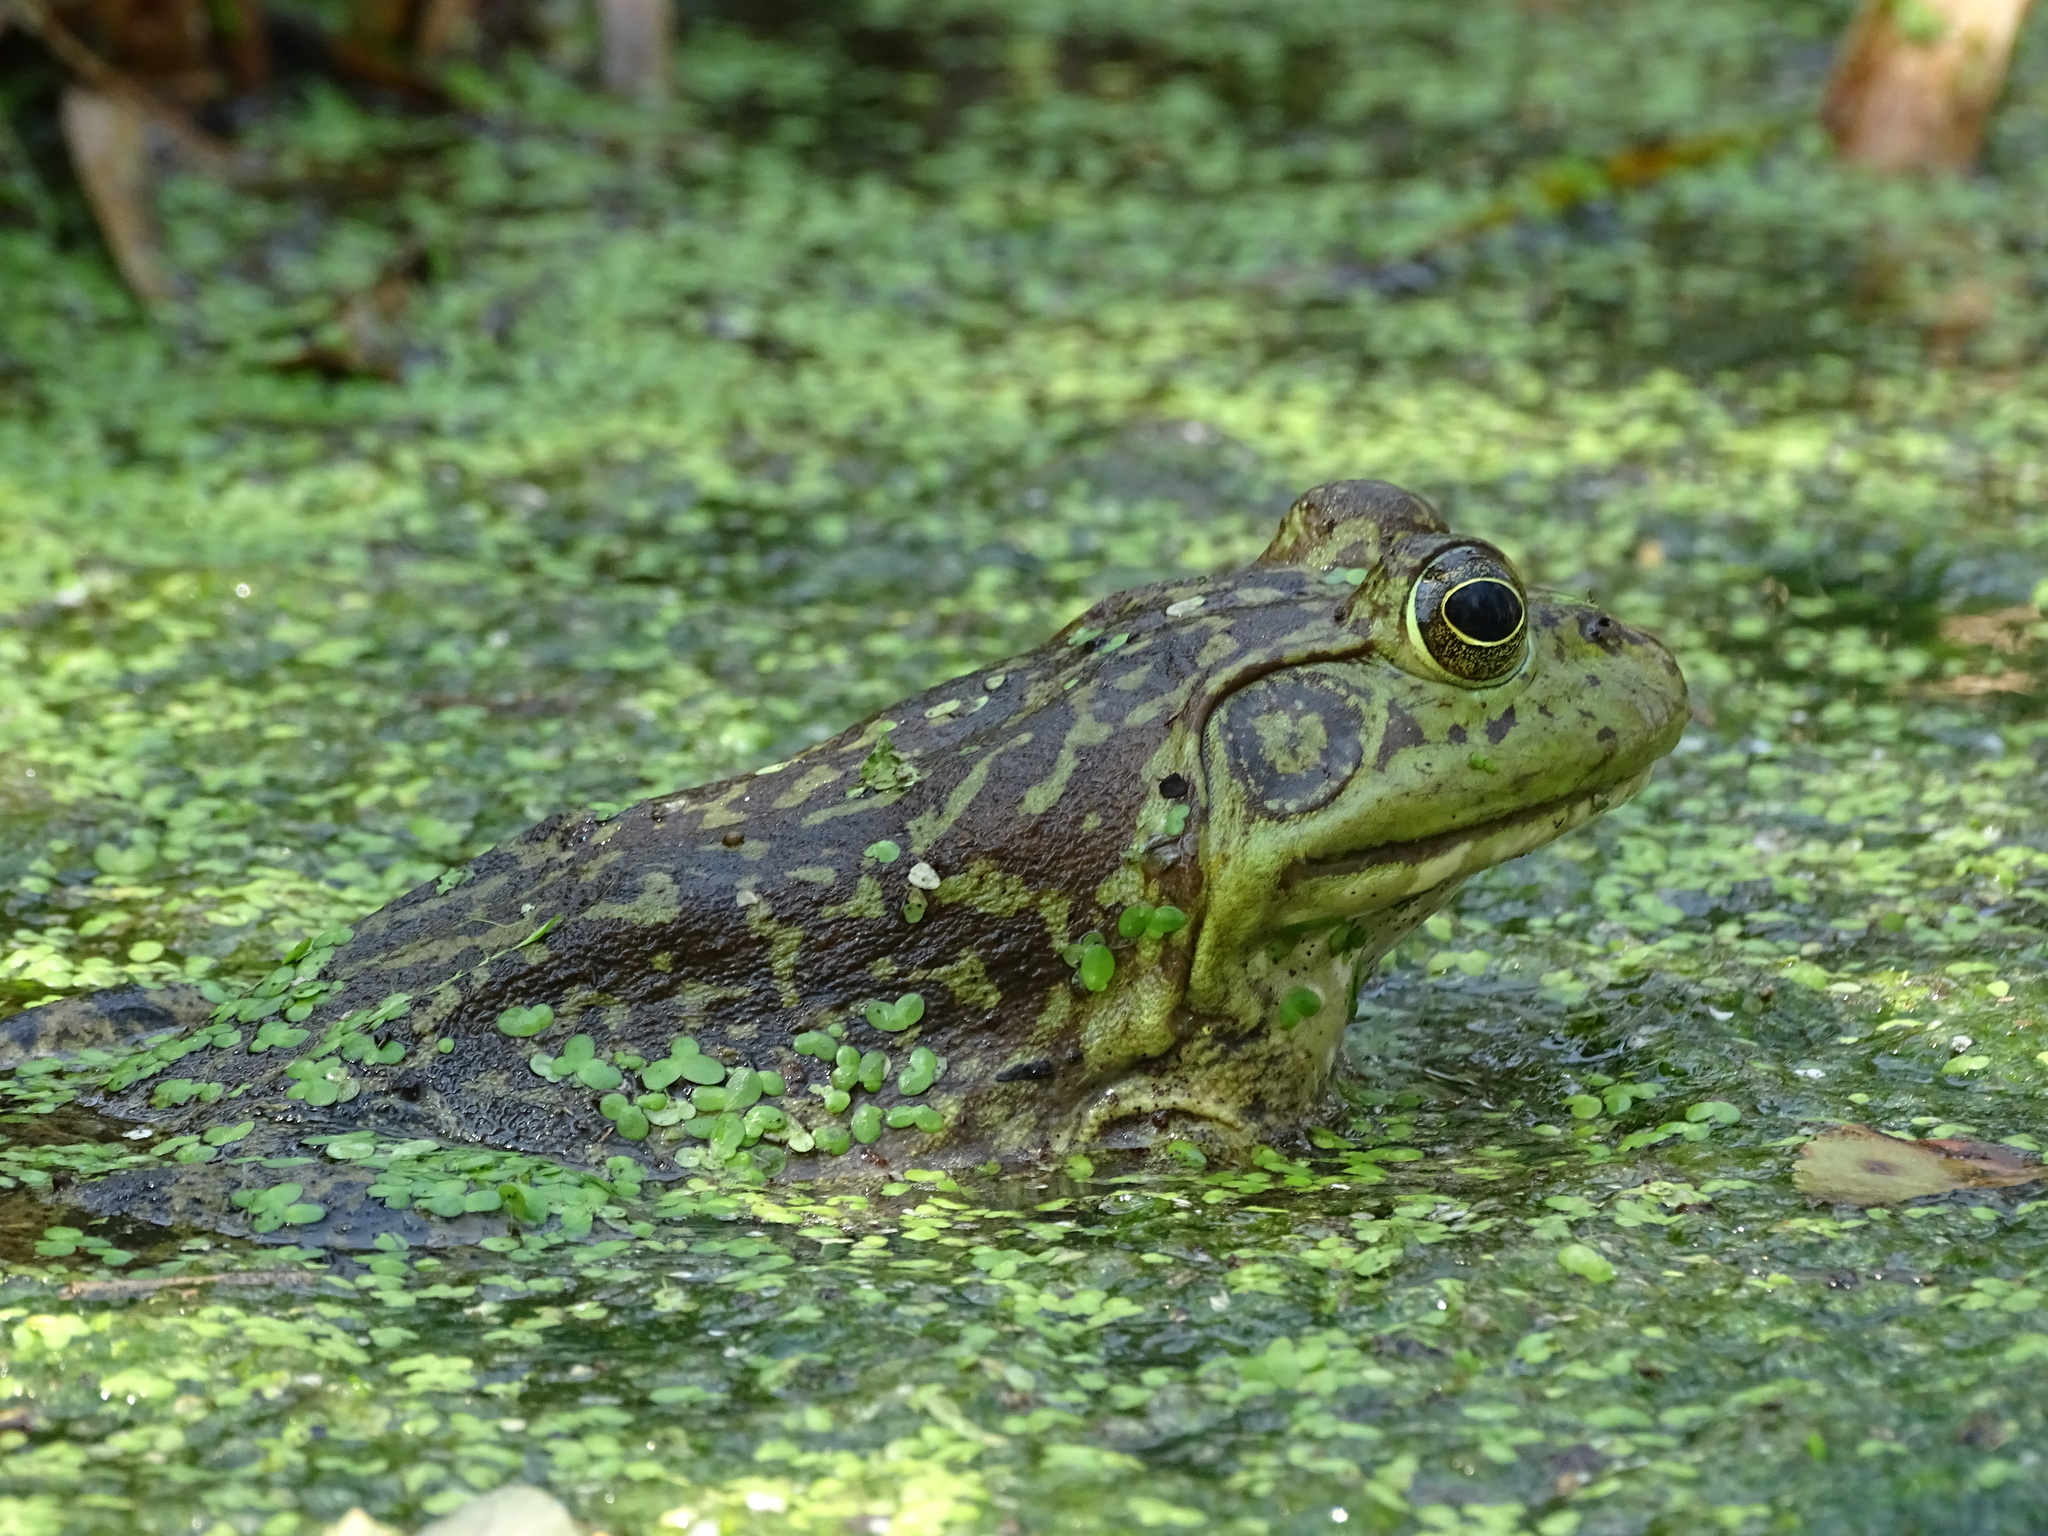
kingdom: Animalia
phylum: Chordata
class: Amphibia
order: Anura
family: Ranidae
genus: Lithobates
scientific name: Lithobates catesbeianus
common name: American bullfrog
